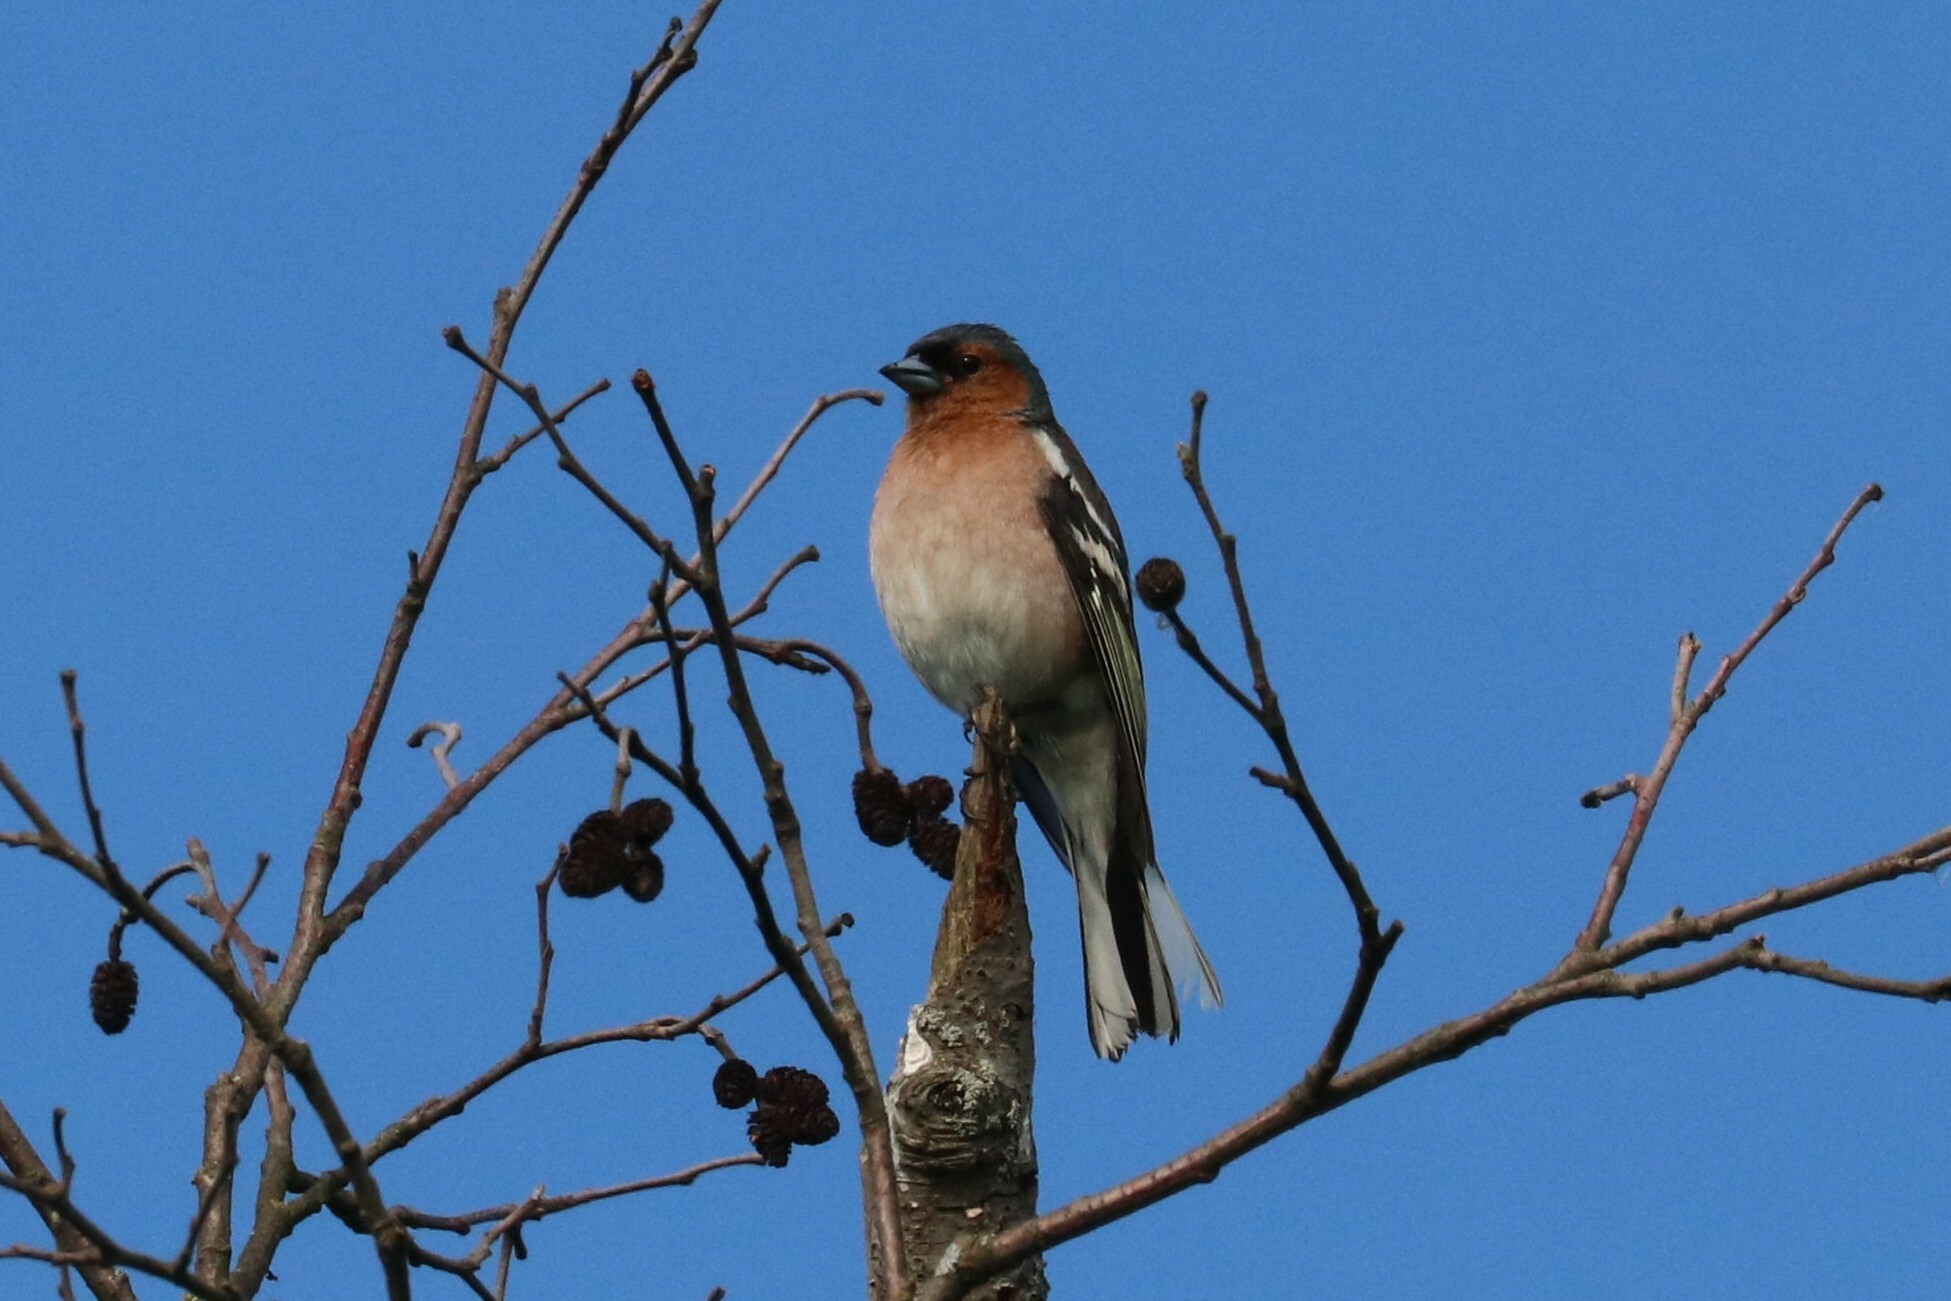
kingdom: Animalia
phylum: Chordata
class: Aves
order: Passeriformes
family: Fringillidae
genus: Fringilla
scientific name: Fringilla coelebs
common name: Common chaffinch
